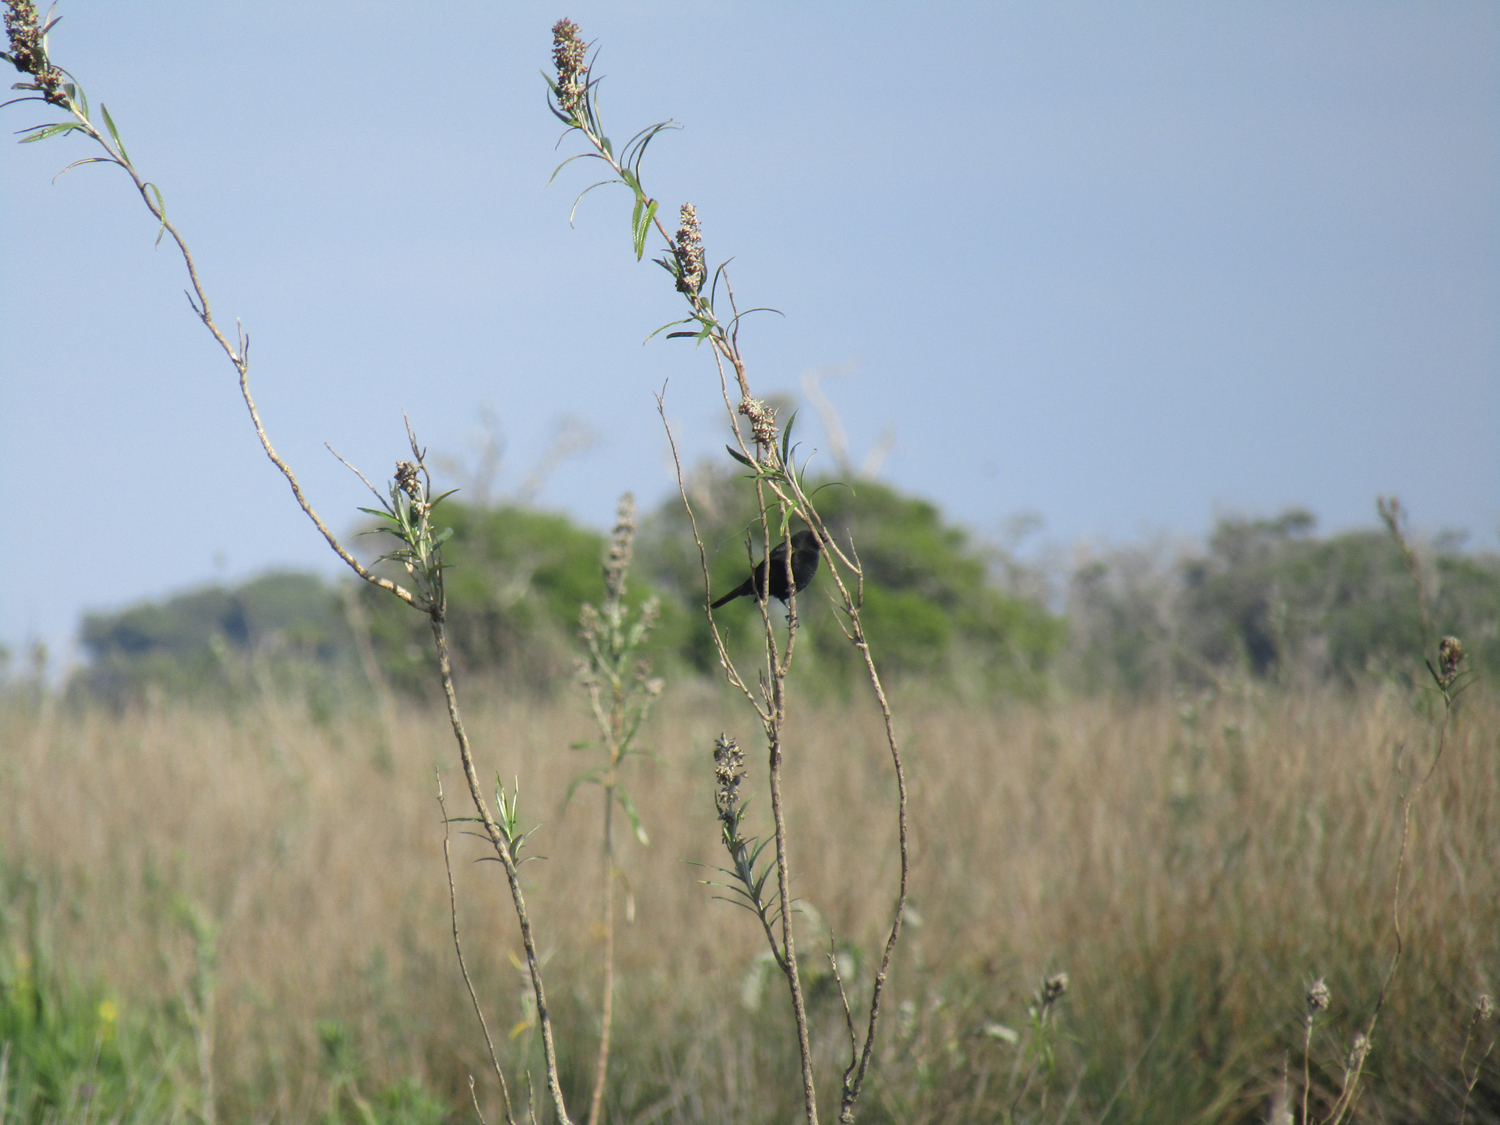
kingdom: Animalia
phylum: Chordata
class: Aves
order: Passeriformes
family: Icteridae
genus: Agelasticus
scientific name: Agelasticus thilius
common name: Yellow-winged blackbird
